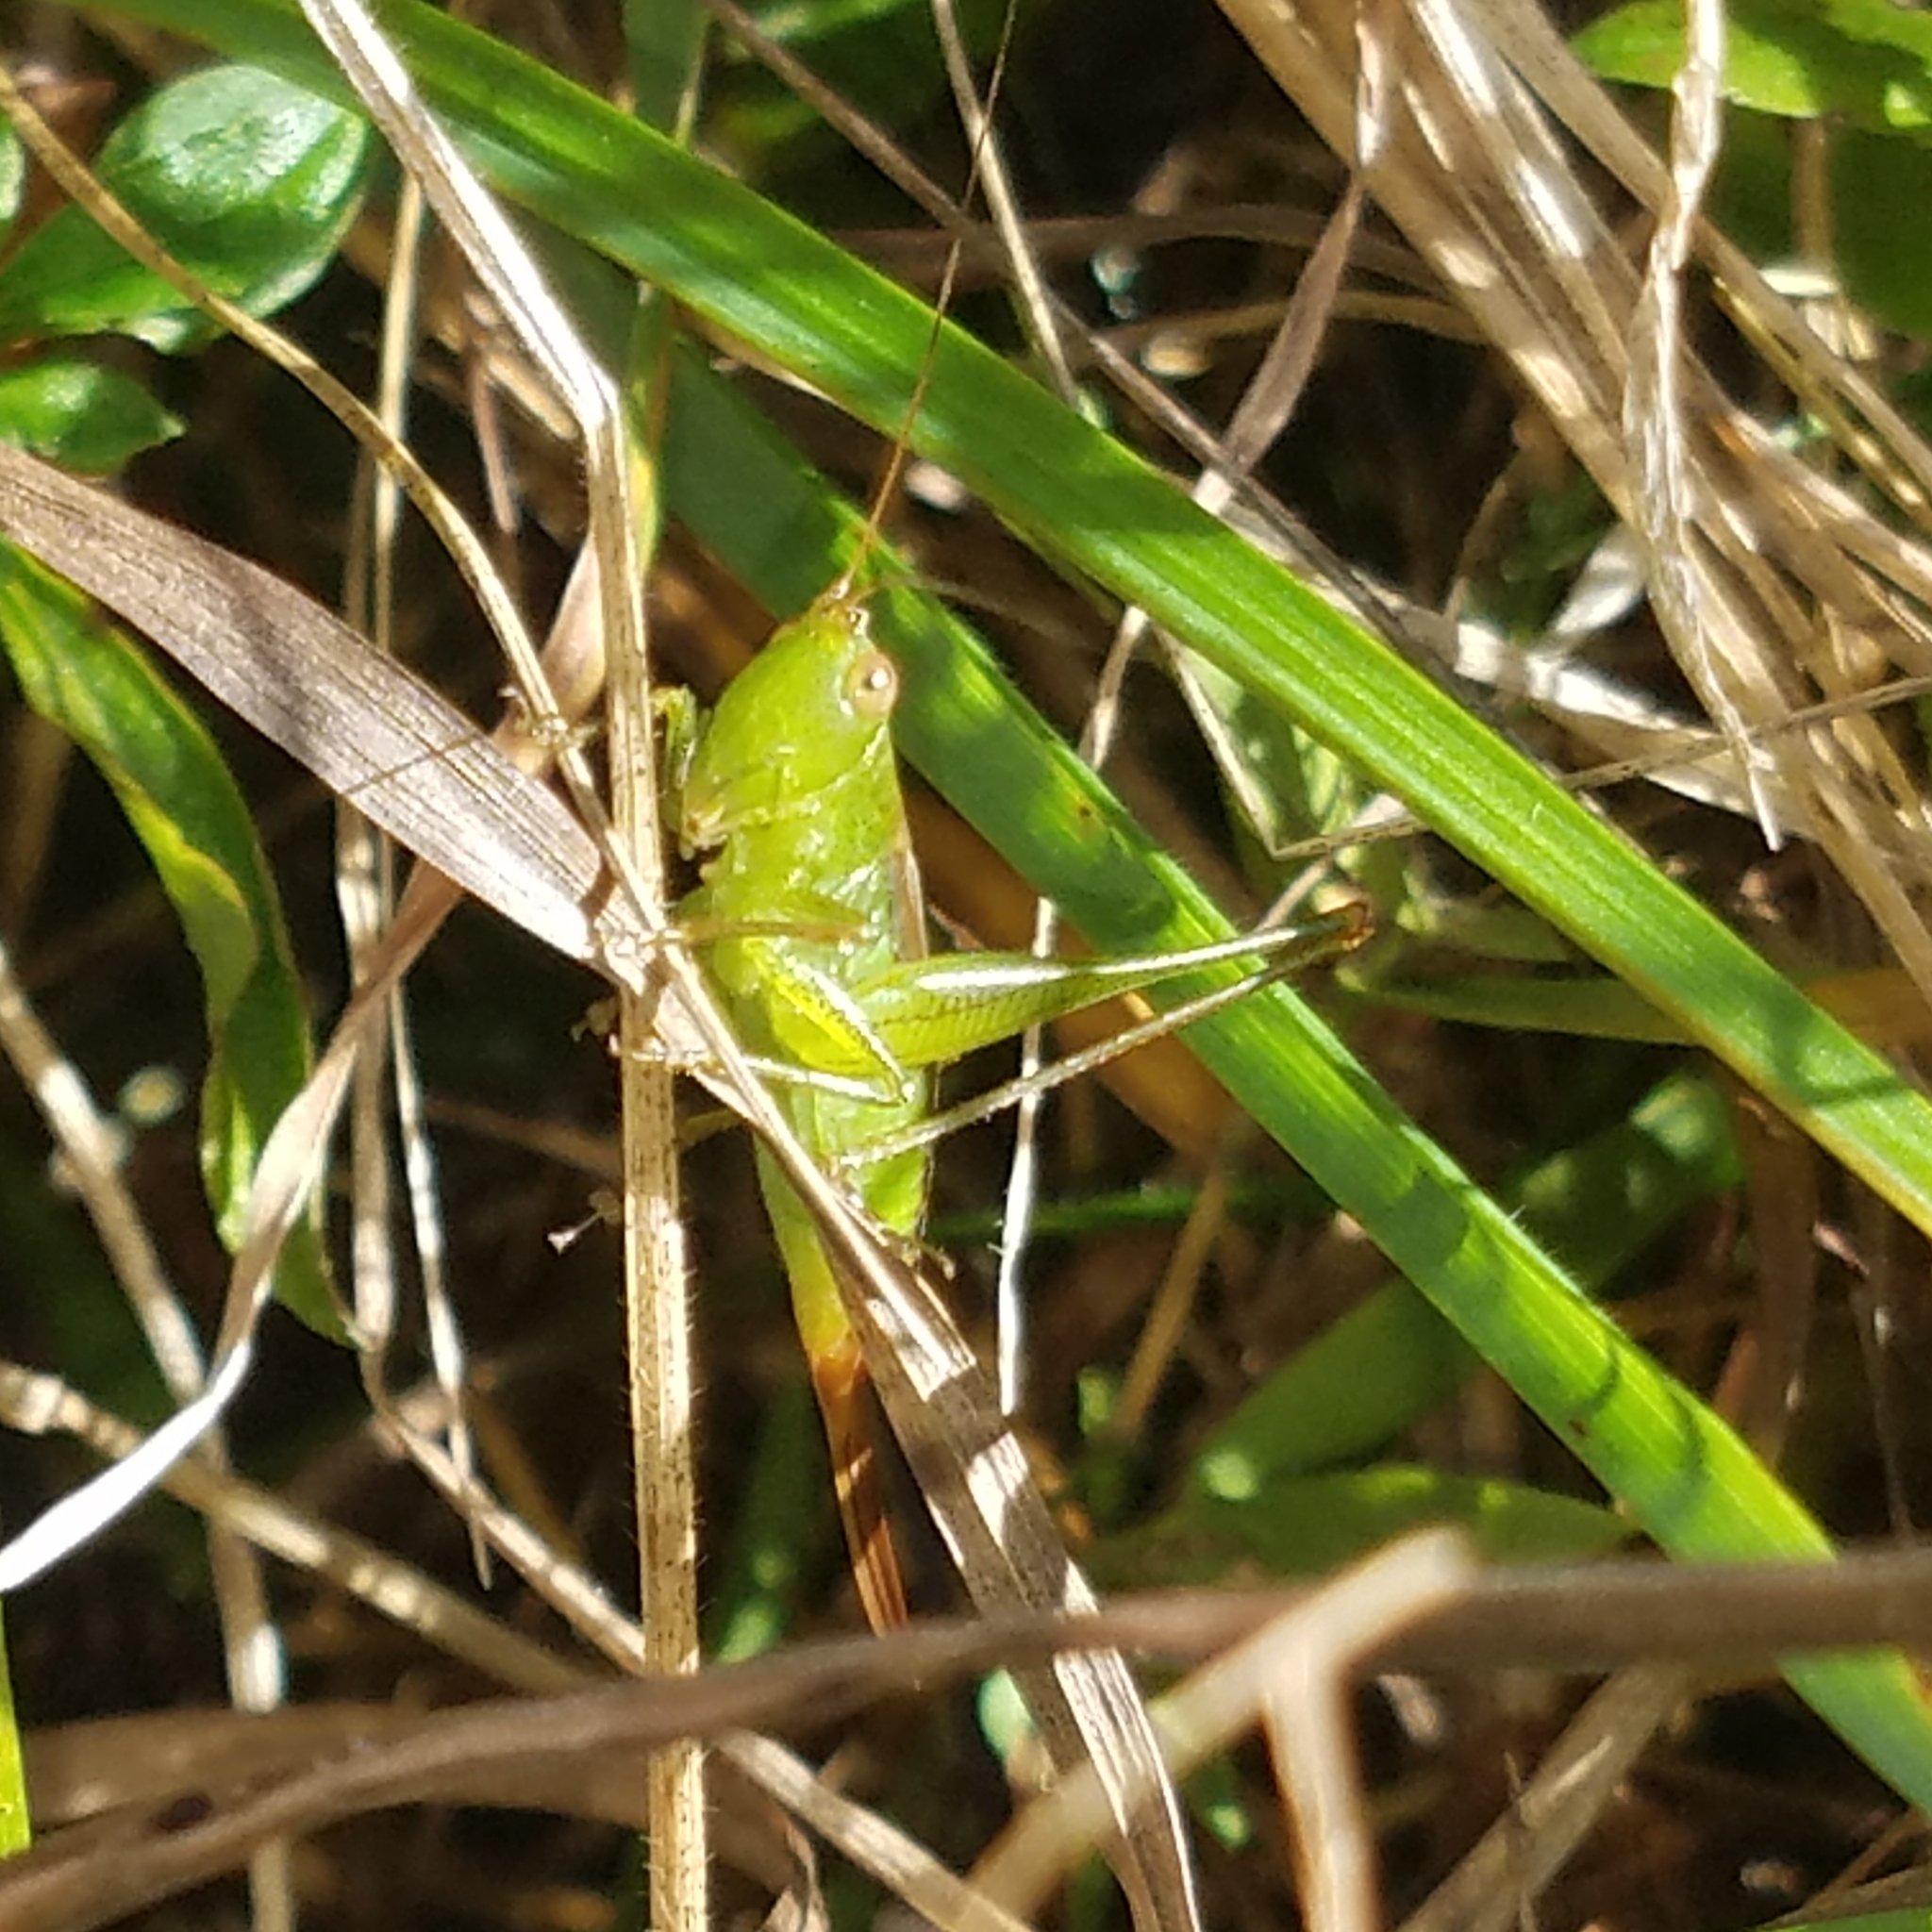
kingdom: Animalia
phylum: Arthropoda
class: Insecta
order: Orthoptera
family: Tettigoniidae
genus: Conocephalus
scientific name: Conocephalus brevipennis
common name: Short-winged meadow katydid
